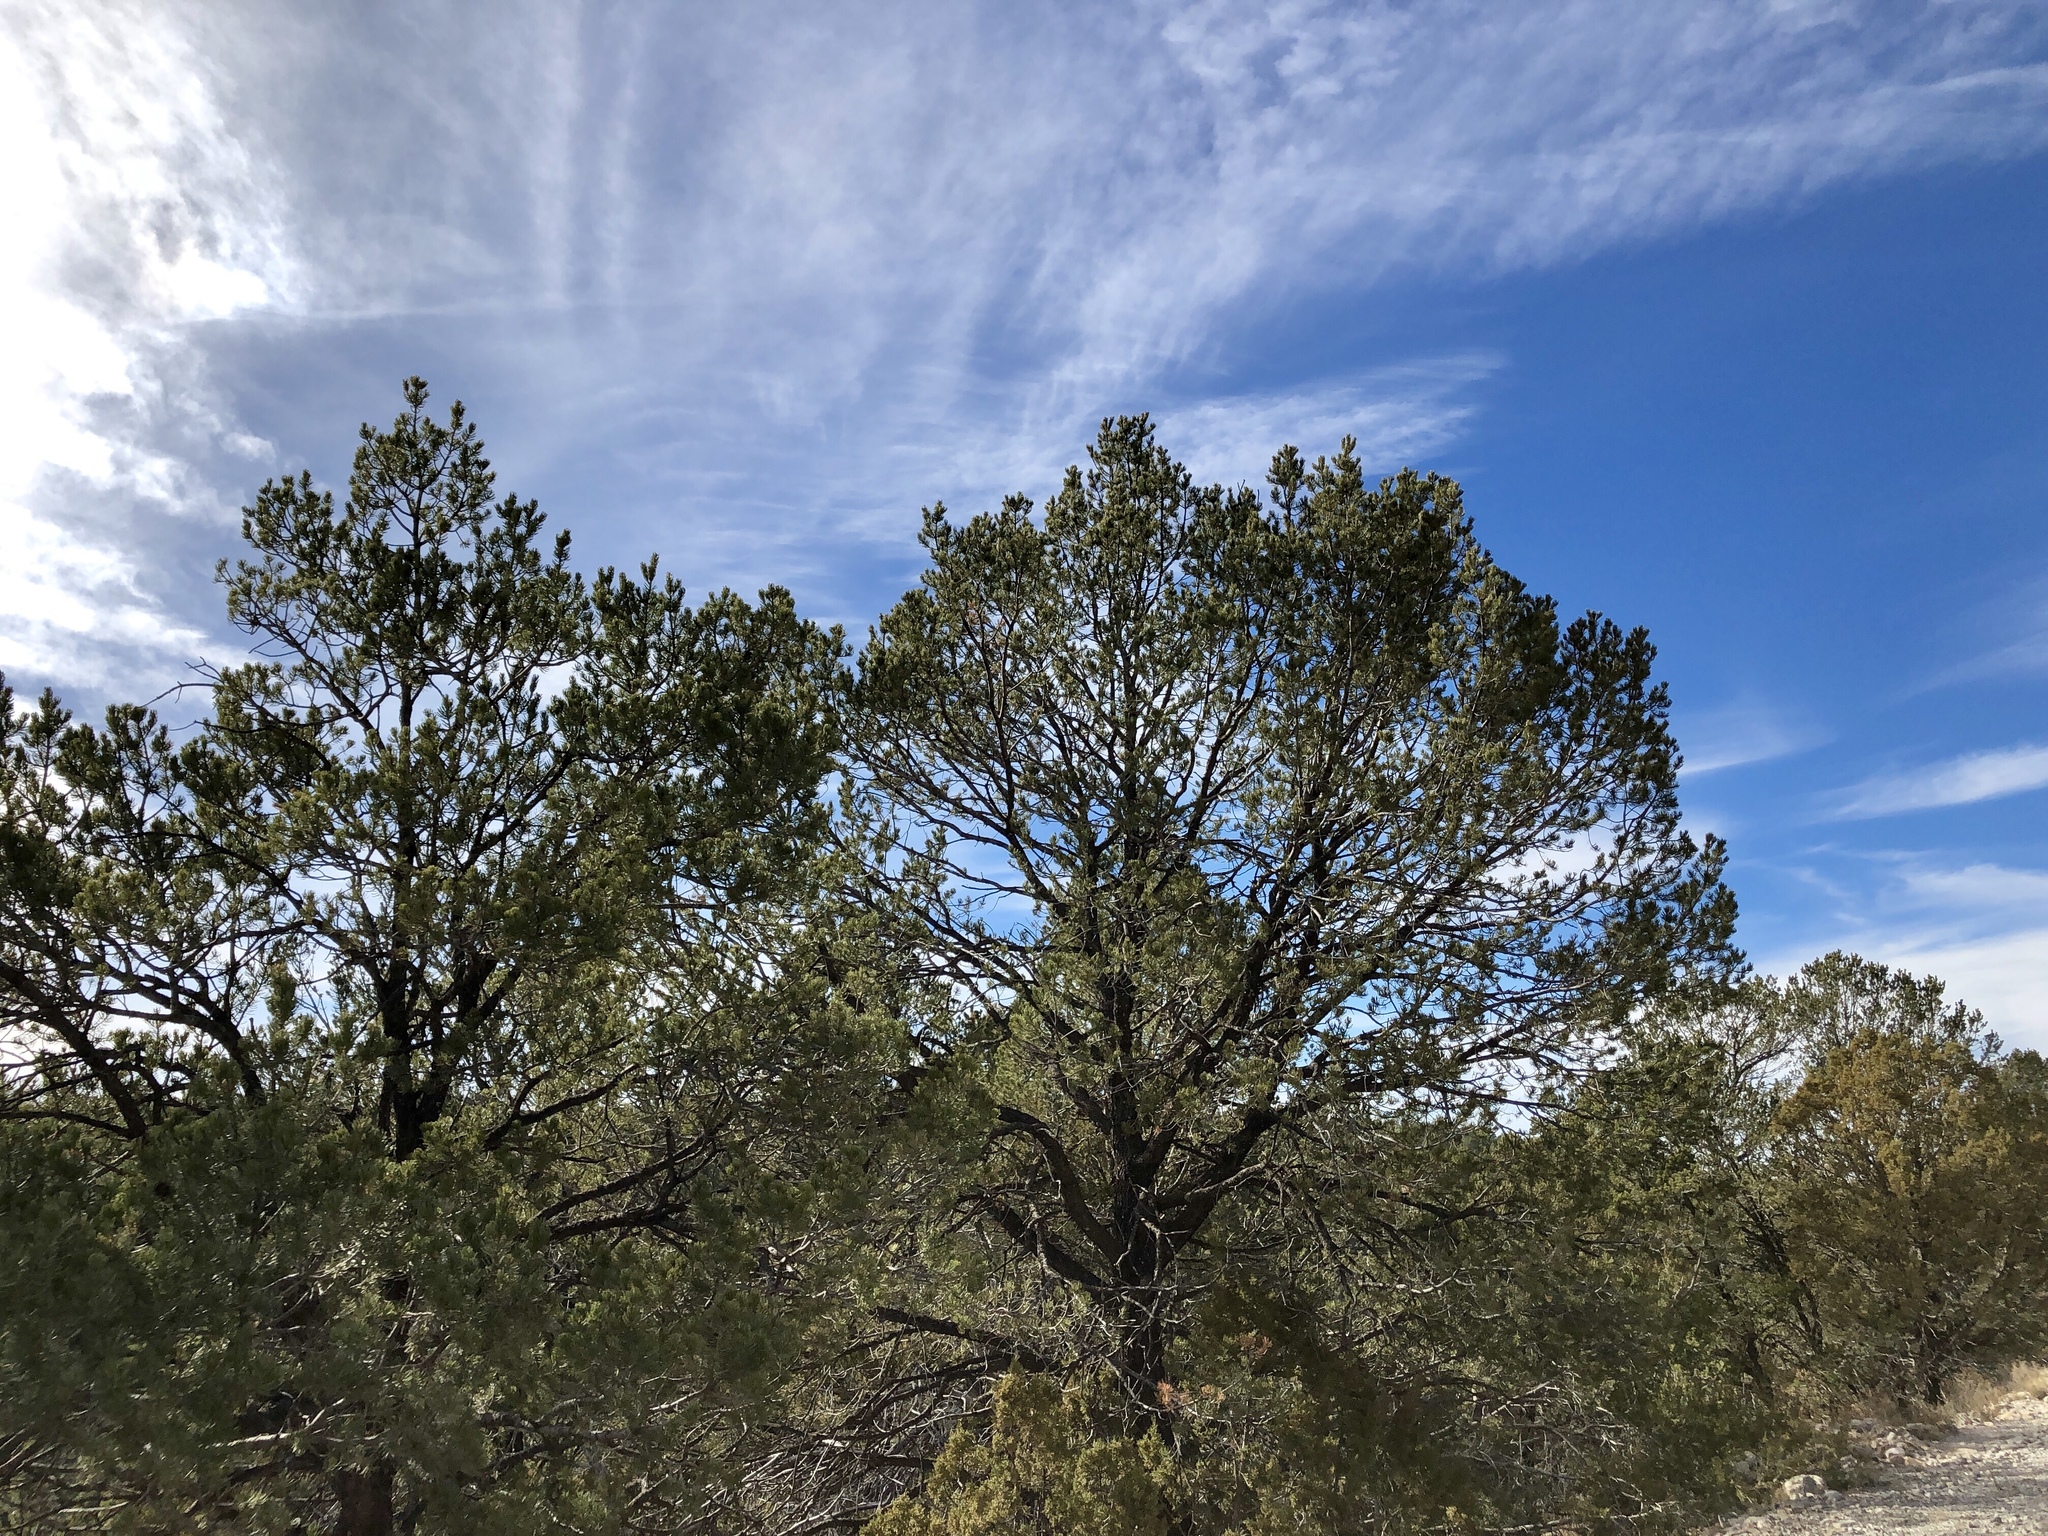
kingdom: Plantae
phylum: Tracheophyta
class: Pinopsida
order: Pinales
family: Pinaceae
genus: Pinus
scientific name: Pinus edulis
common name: Colorado pinyon
